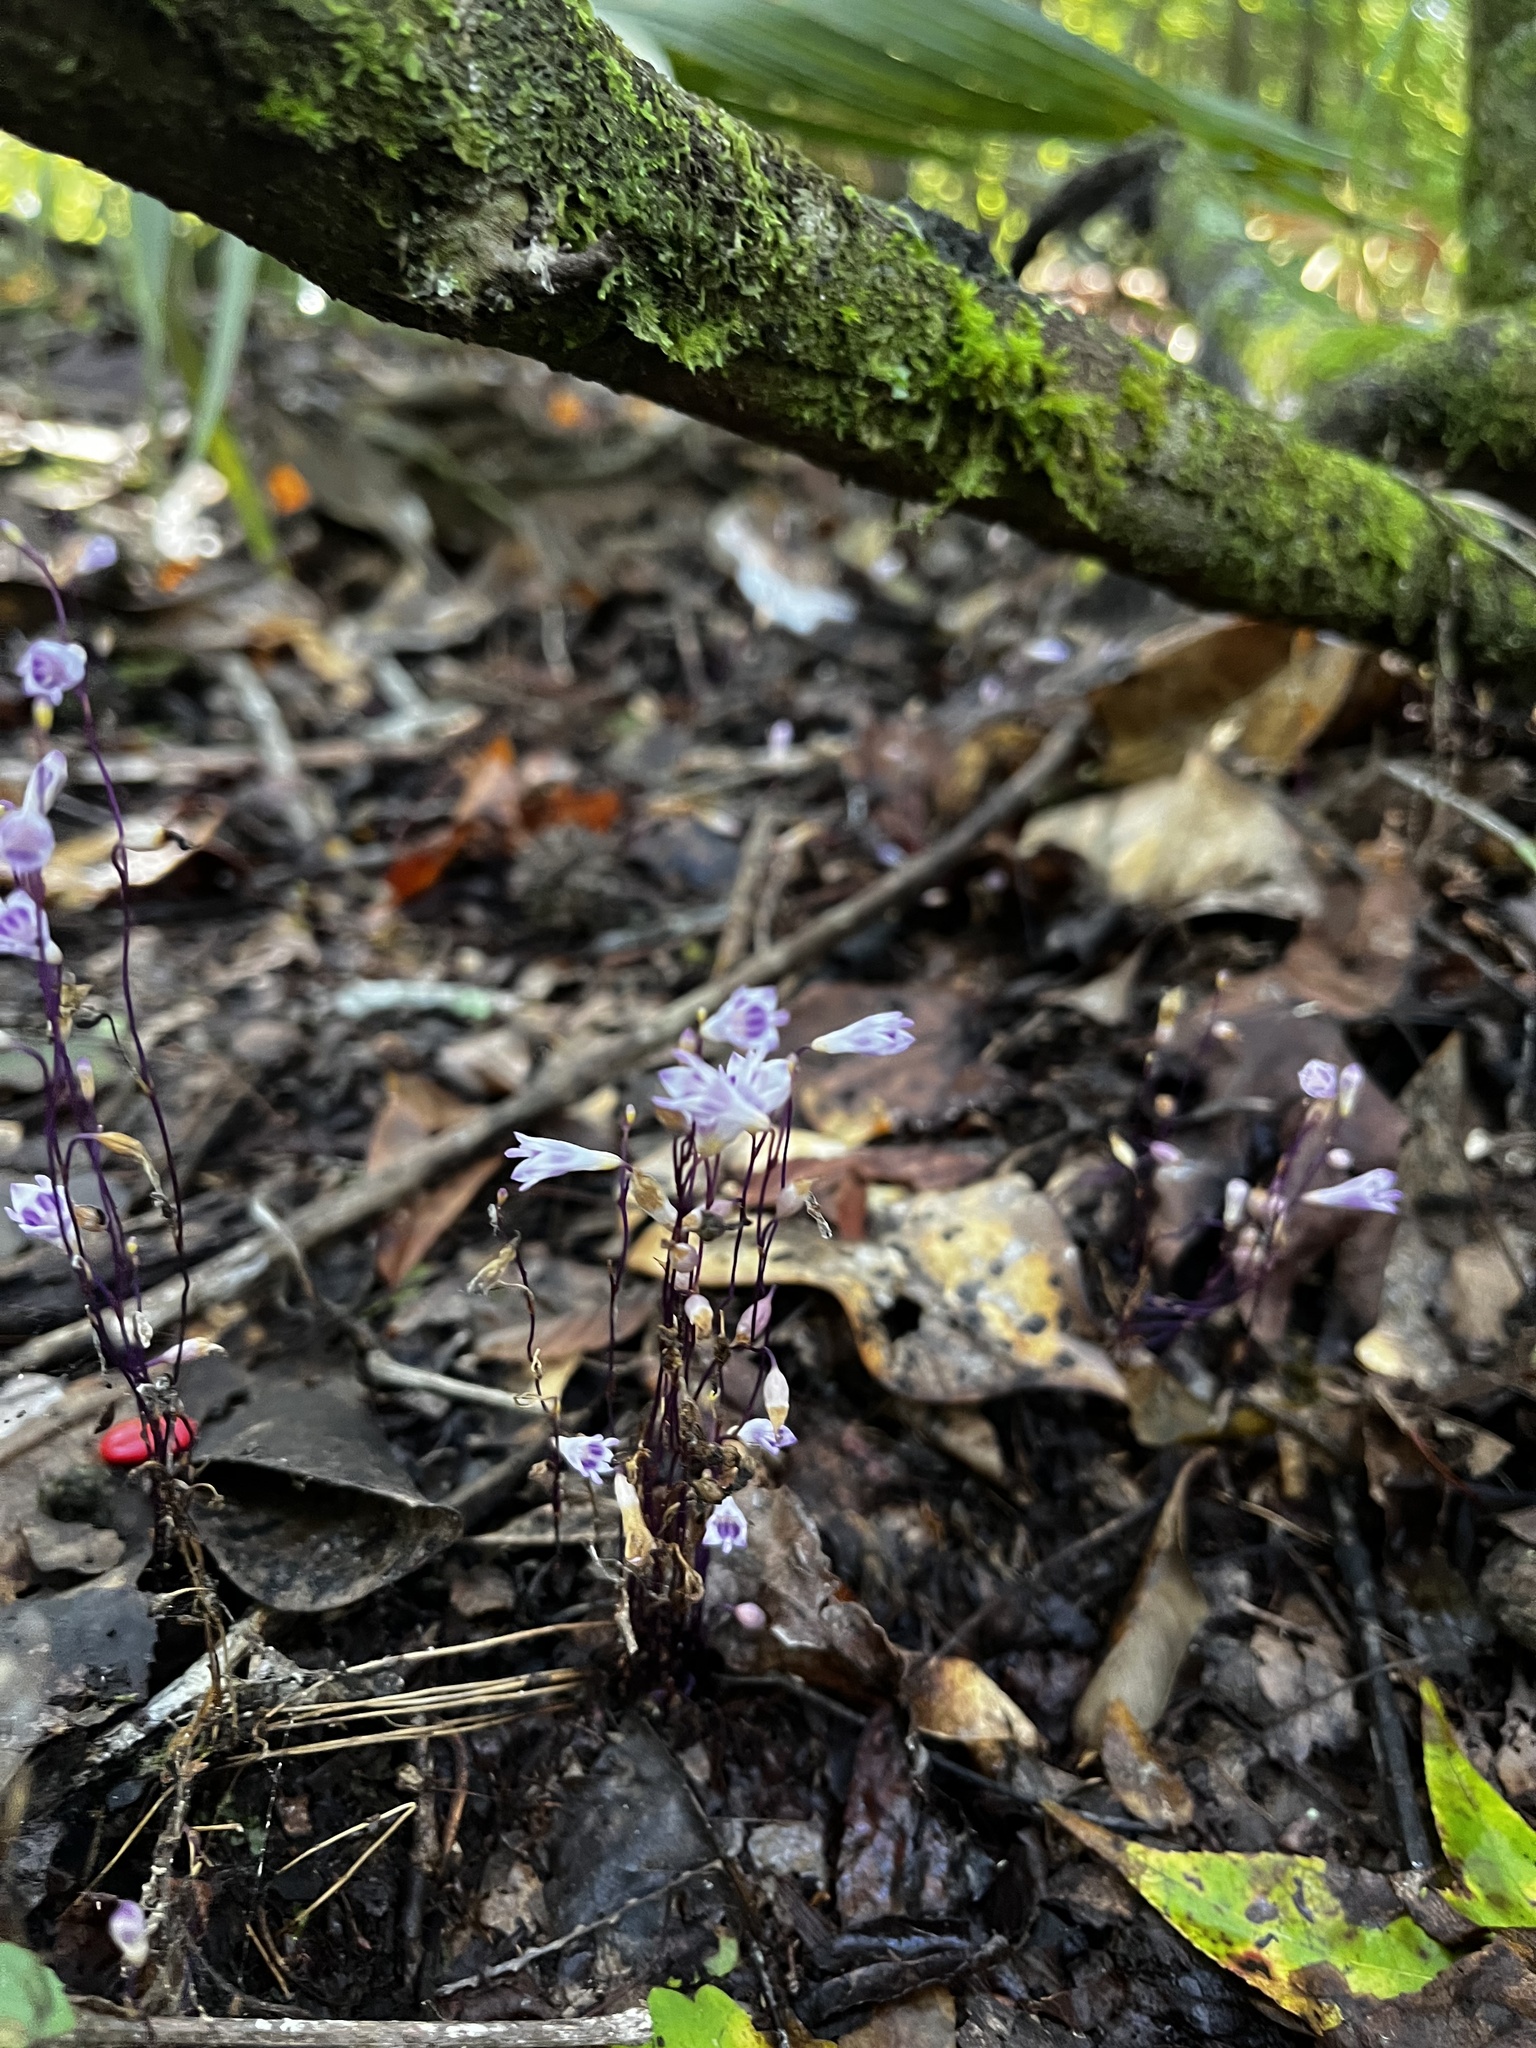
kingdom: Plantae
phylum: Tracheophyta
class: Liliopsida
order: Dioscoreales
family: Burmanniaceae
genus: Apteria
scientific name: Apteria aphylla
